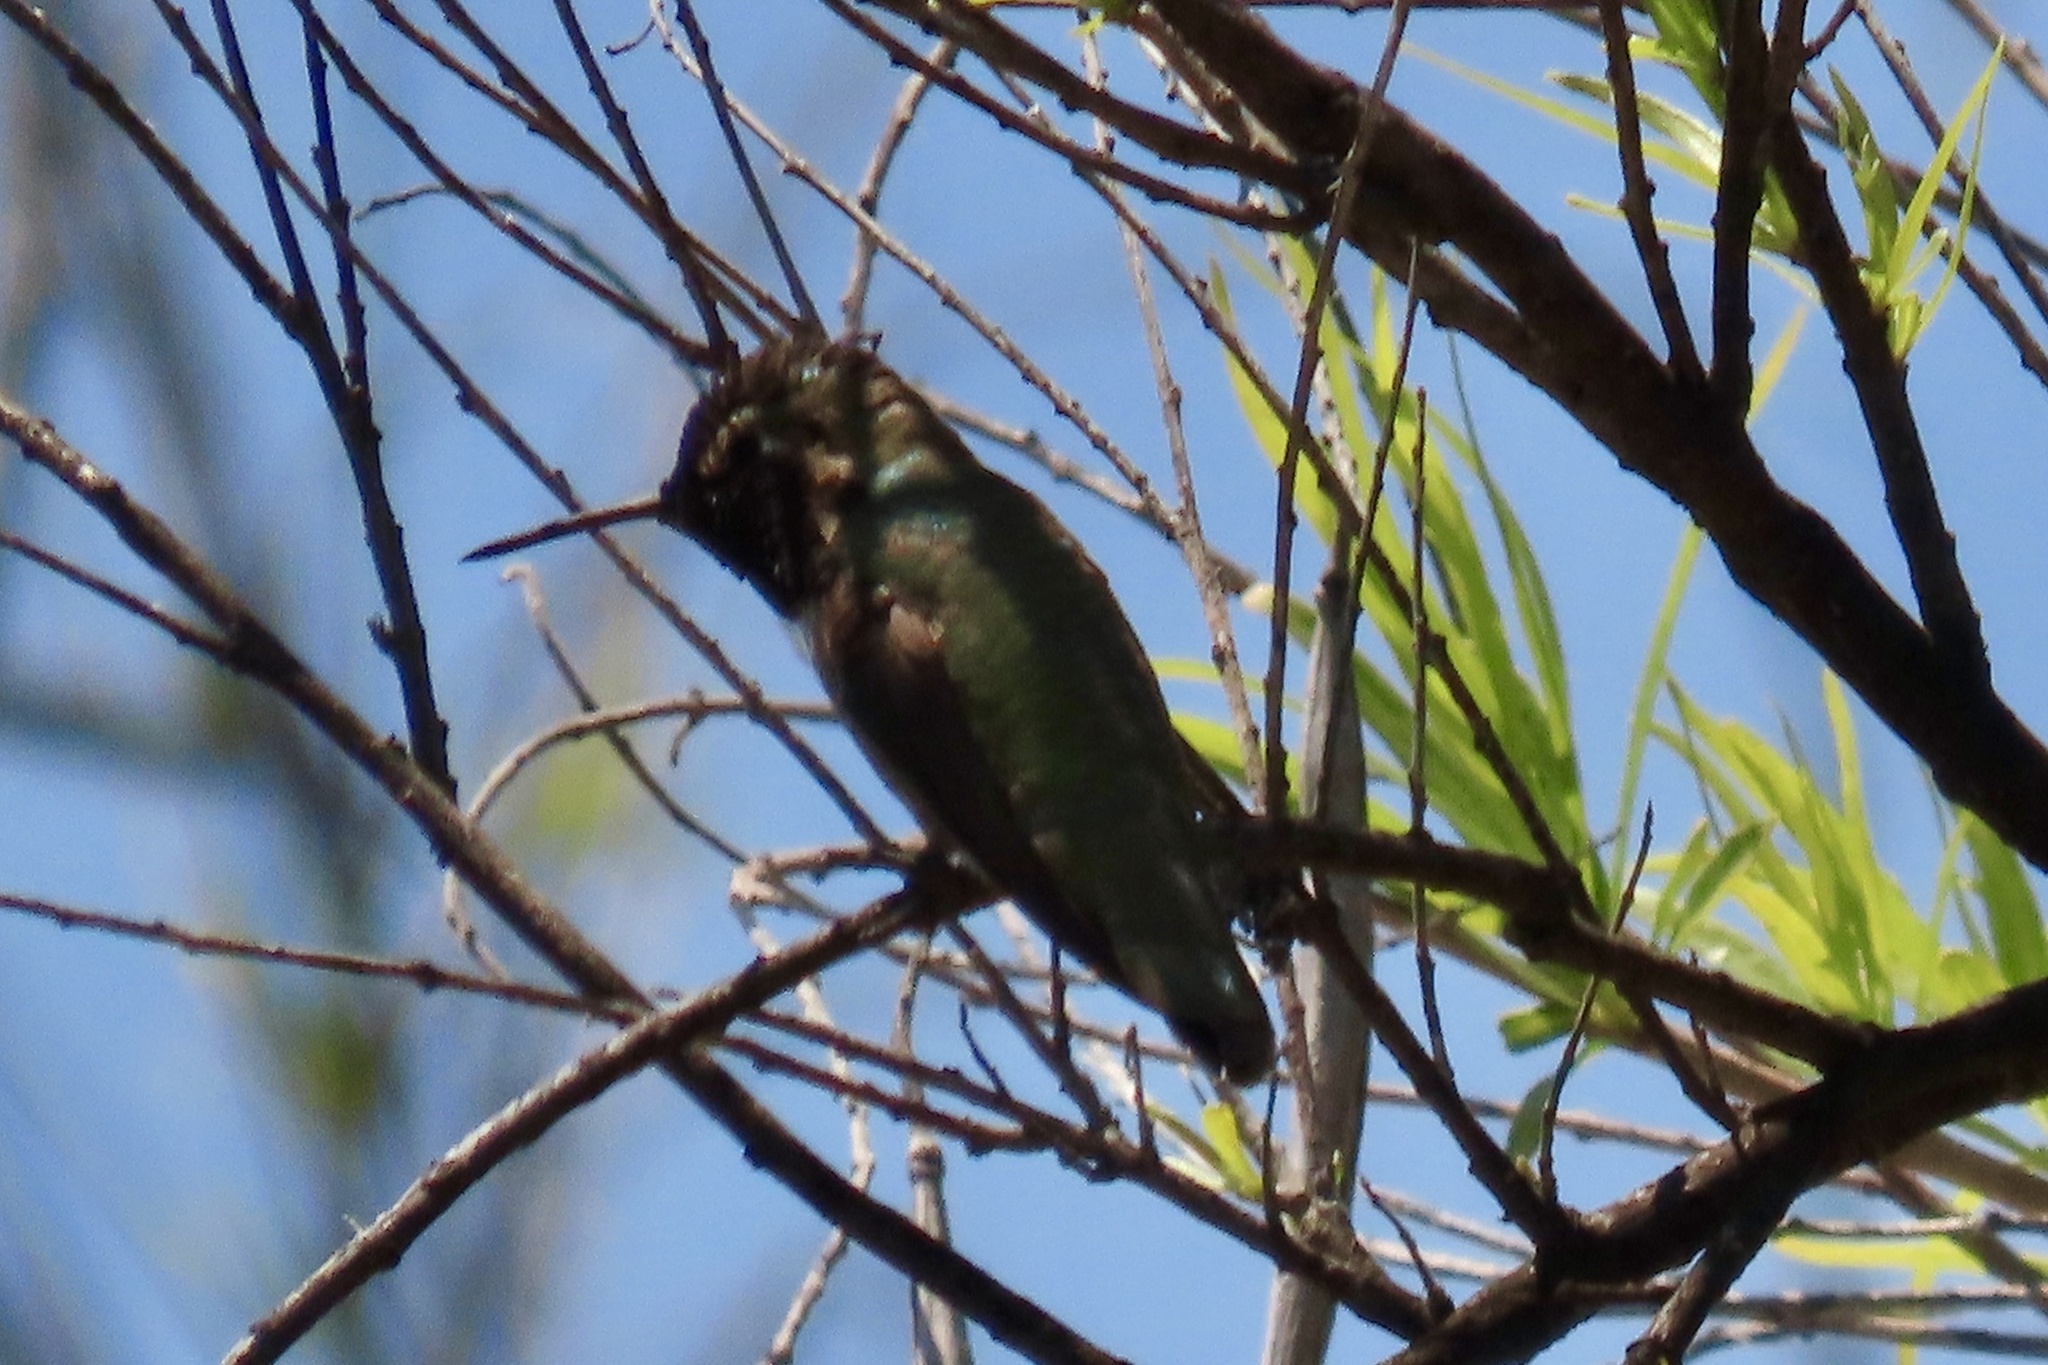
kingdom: Animalia
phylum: Chordata
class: Aves
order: Apodiformes
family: Trochilidae
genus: Calypte
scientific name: Calypte anna
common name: Anna's hummingbird
